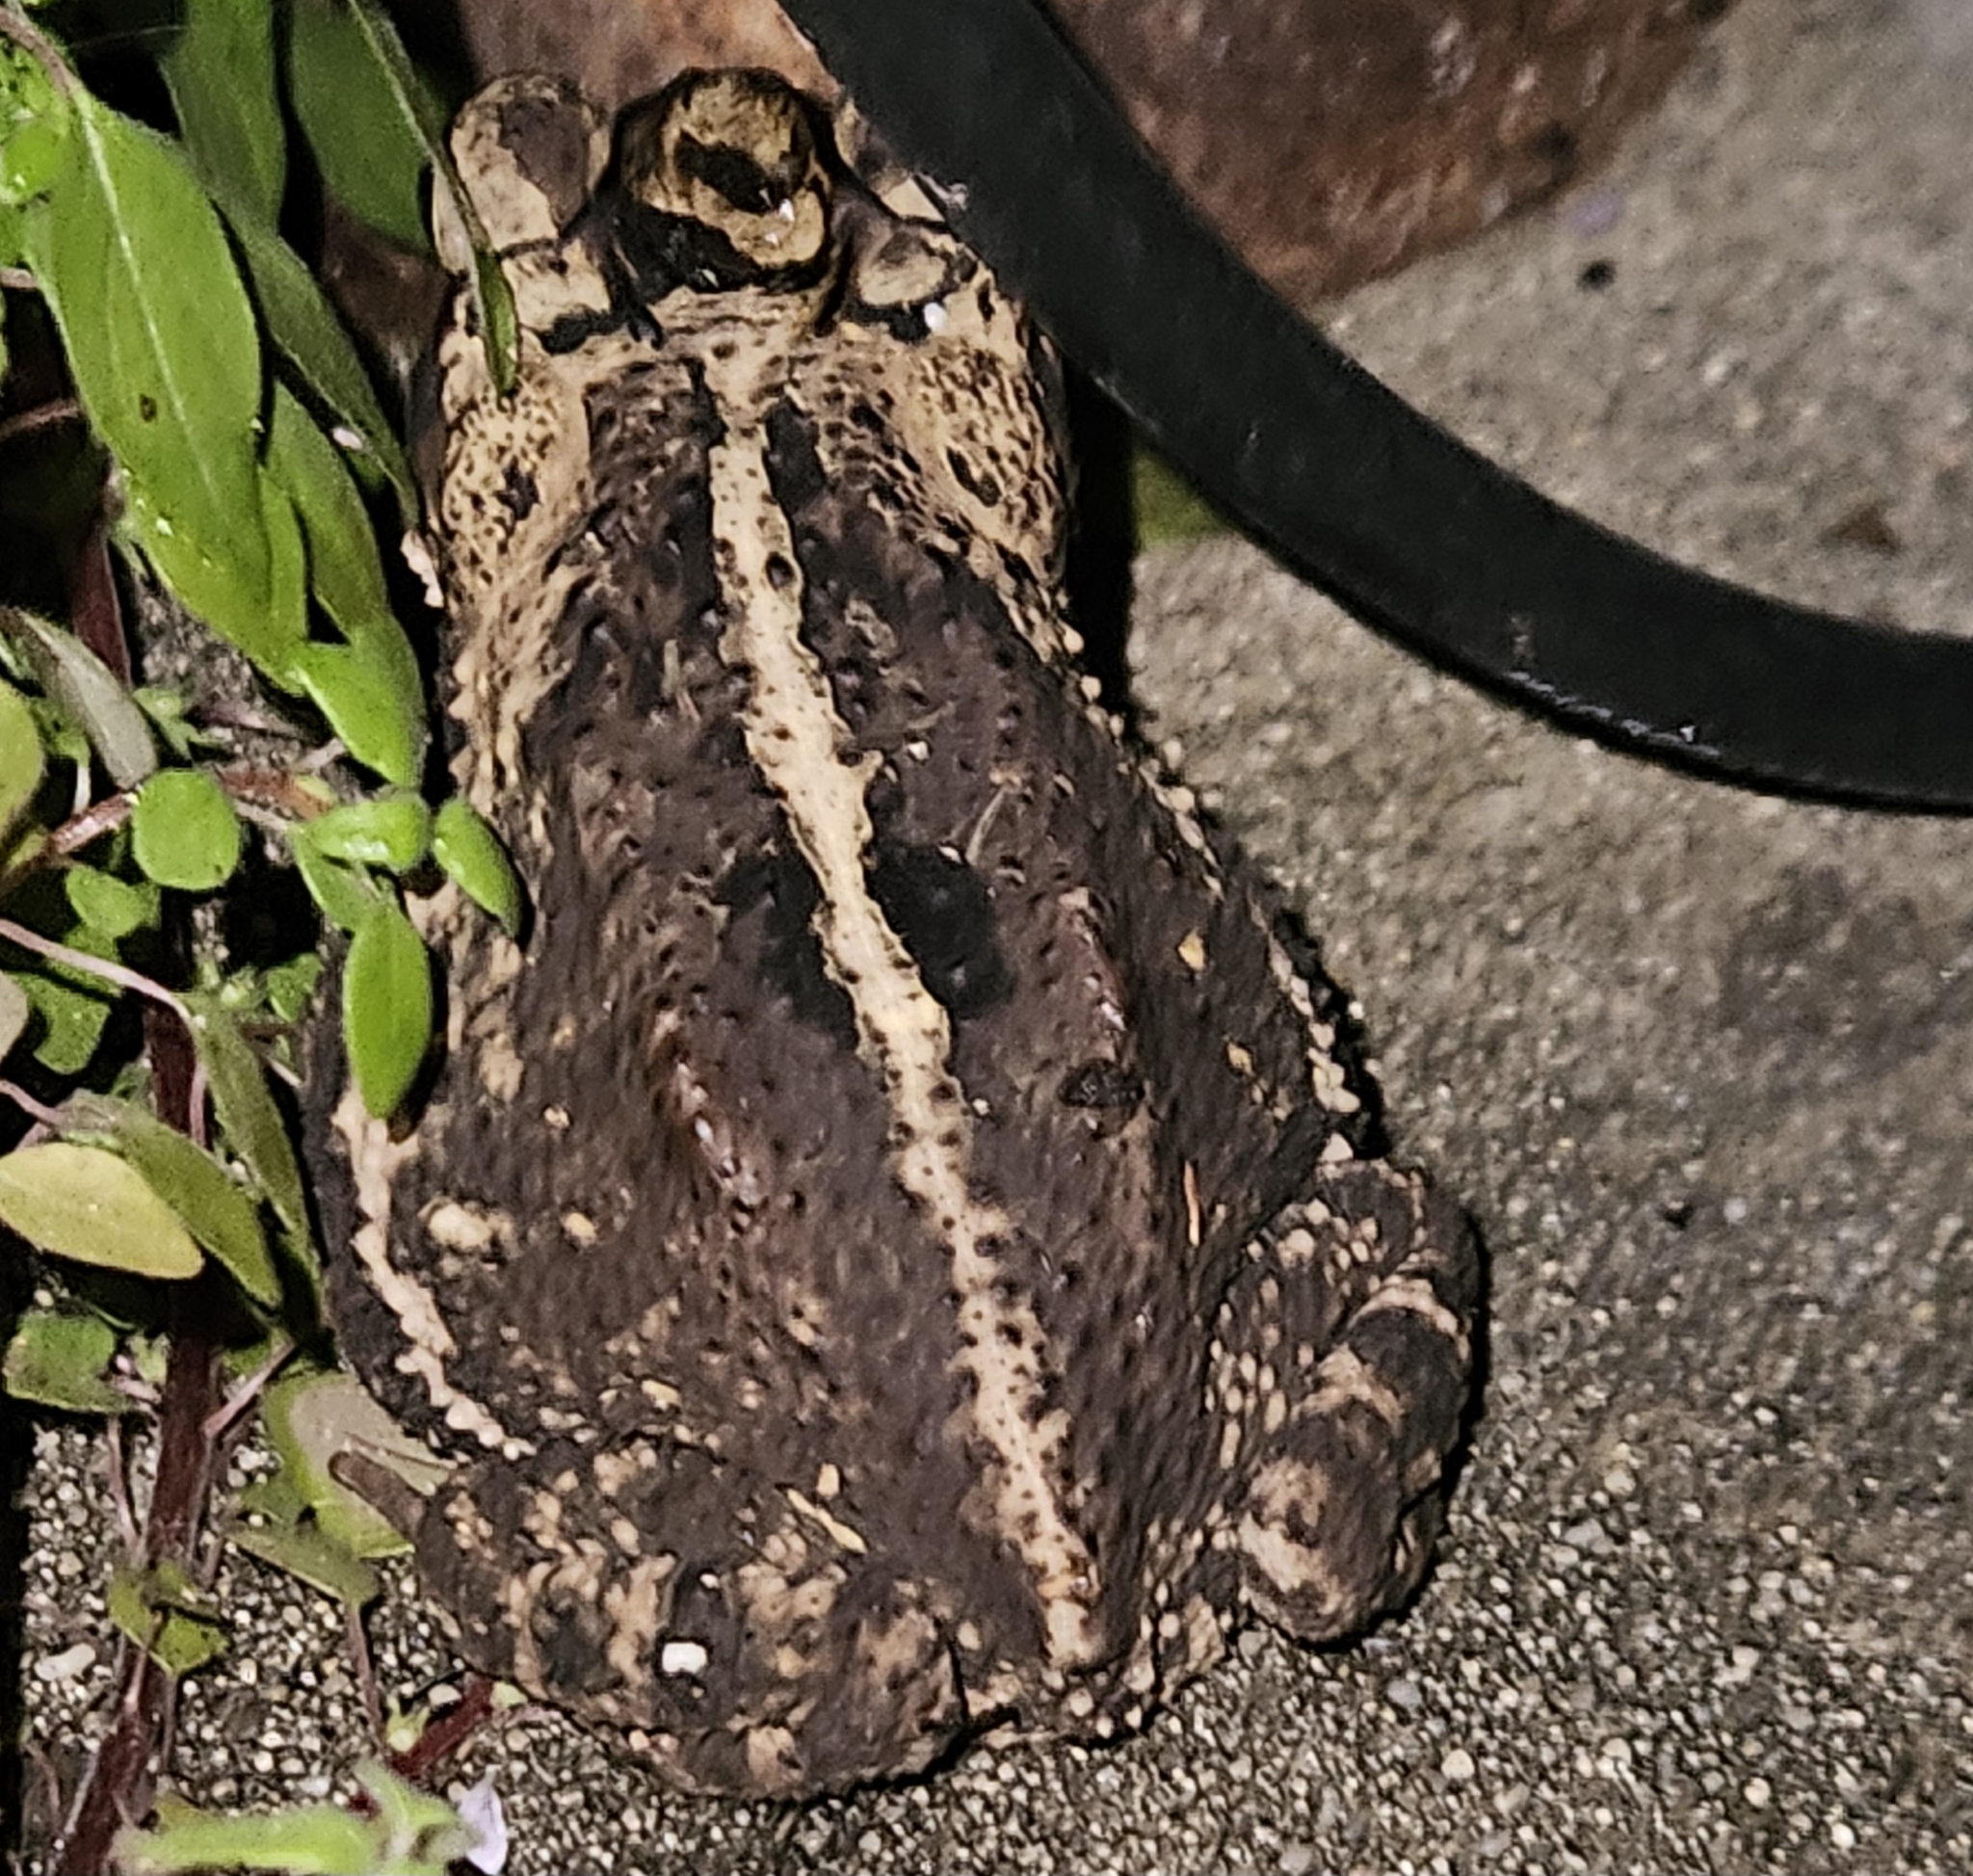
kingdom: Animalia
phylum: Chordata
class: Amphibia
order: Anura
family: Bufonidae
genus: Incilius
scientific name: Incilius nebulifer
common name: Gulf coast toad
